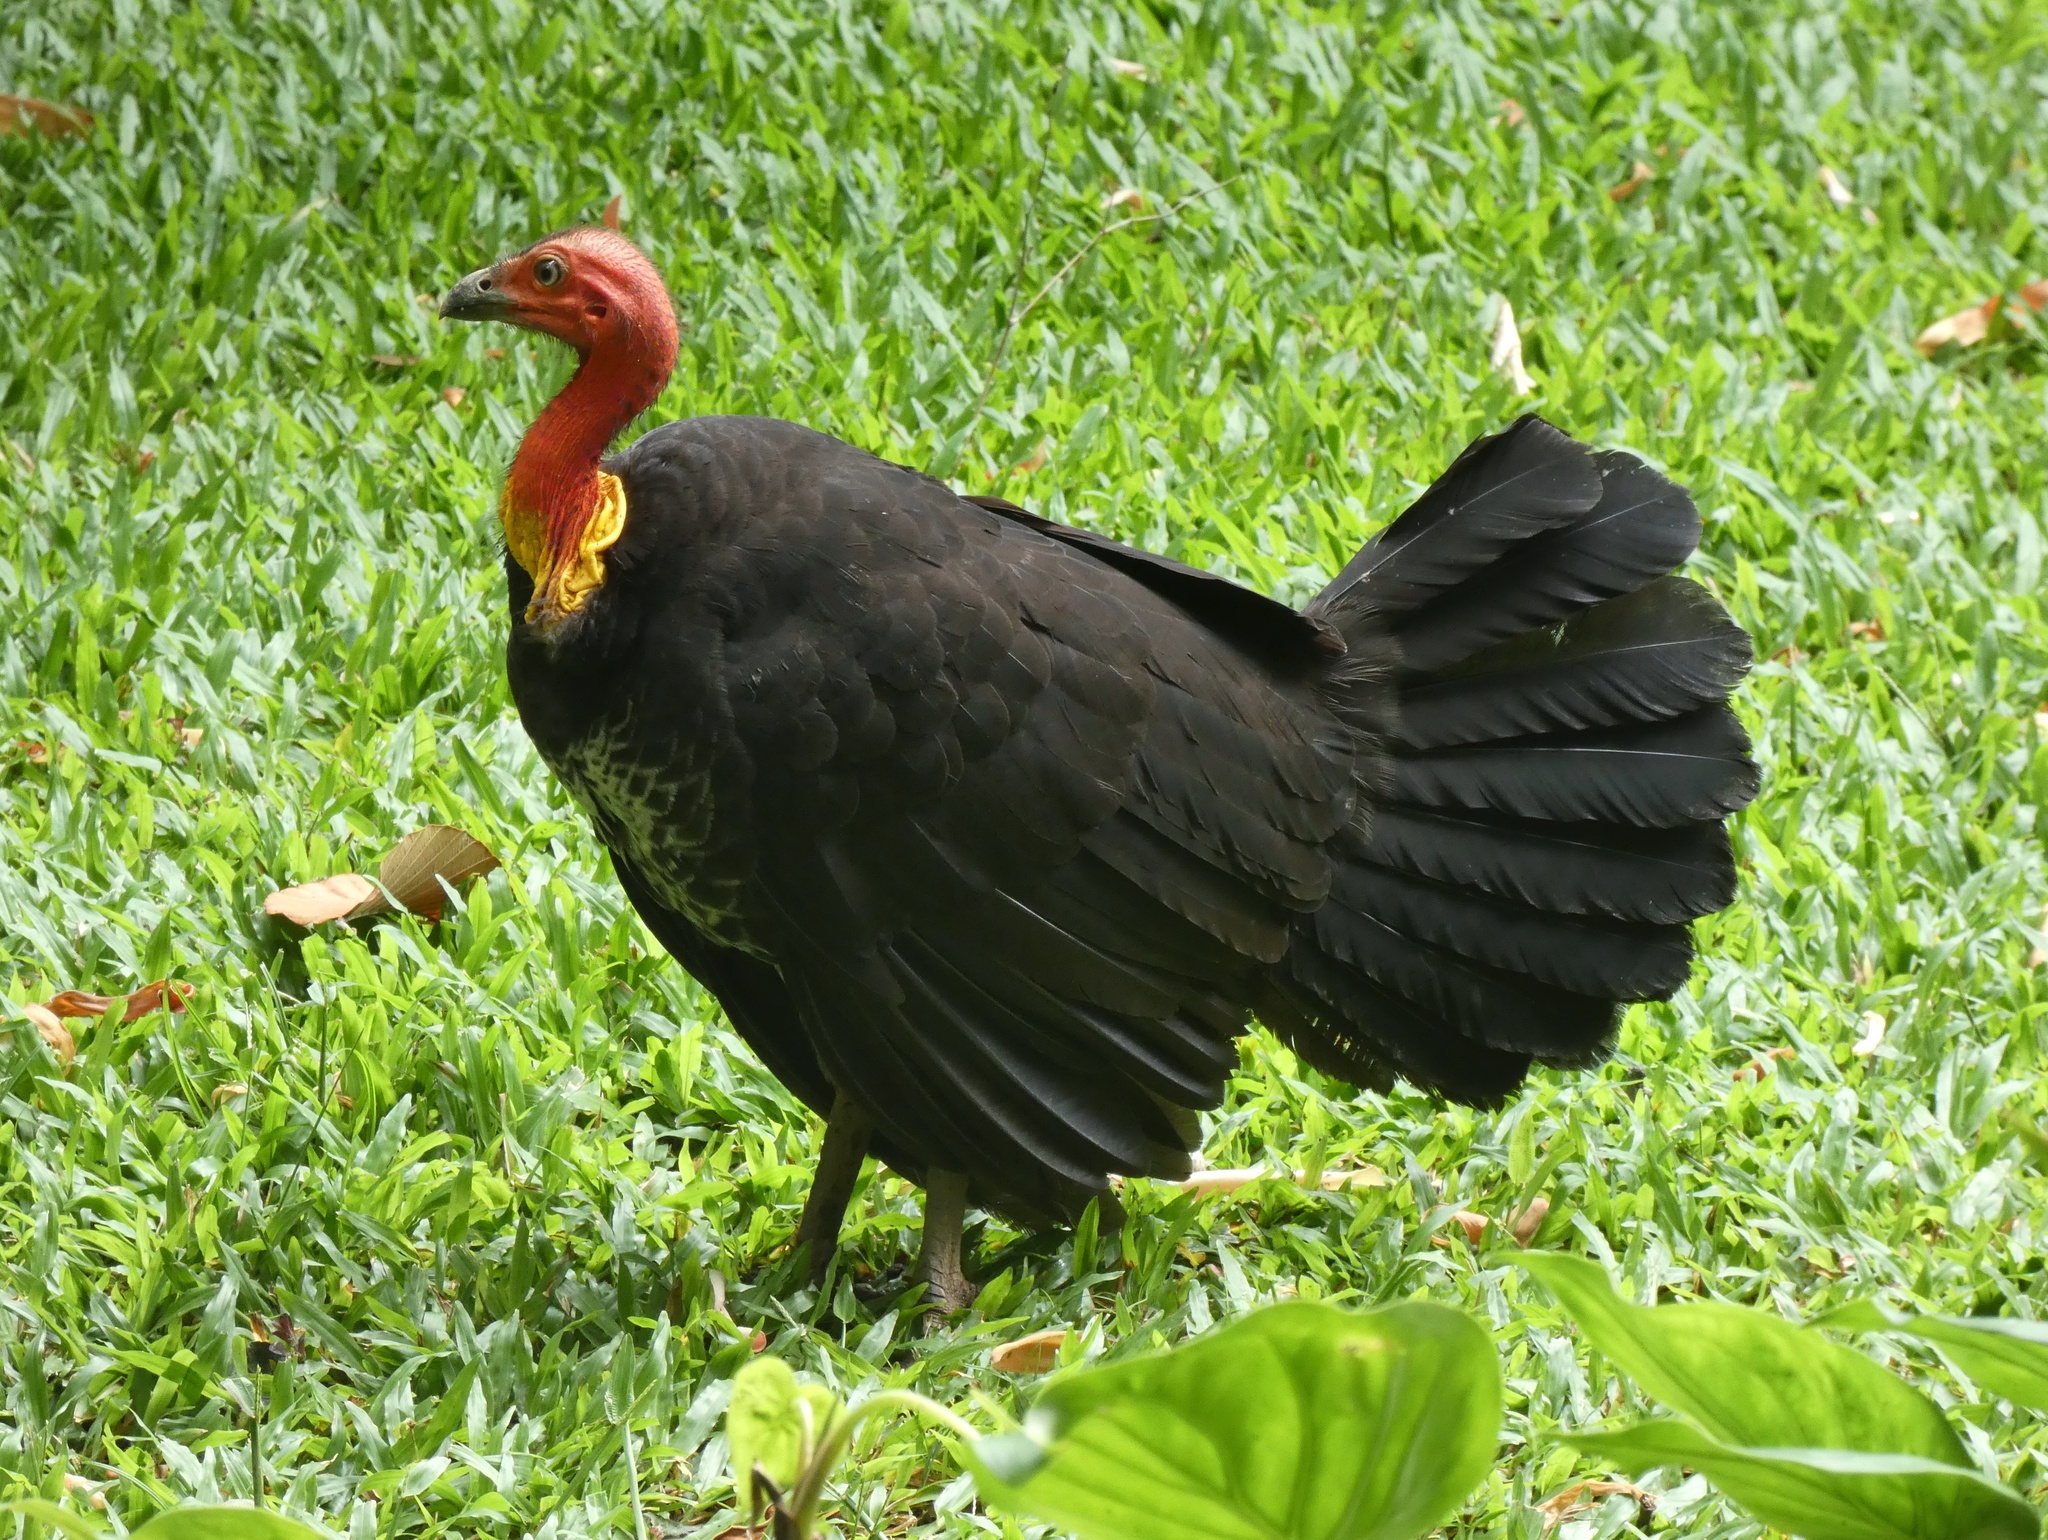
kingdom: Animalia
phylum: Chordata
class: Aves
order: Galliformes
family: Megapodiidae
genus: Alectura
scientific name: Alectura lathami
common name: Australian brushturkey
